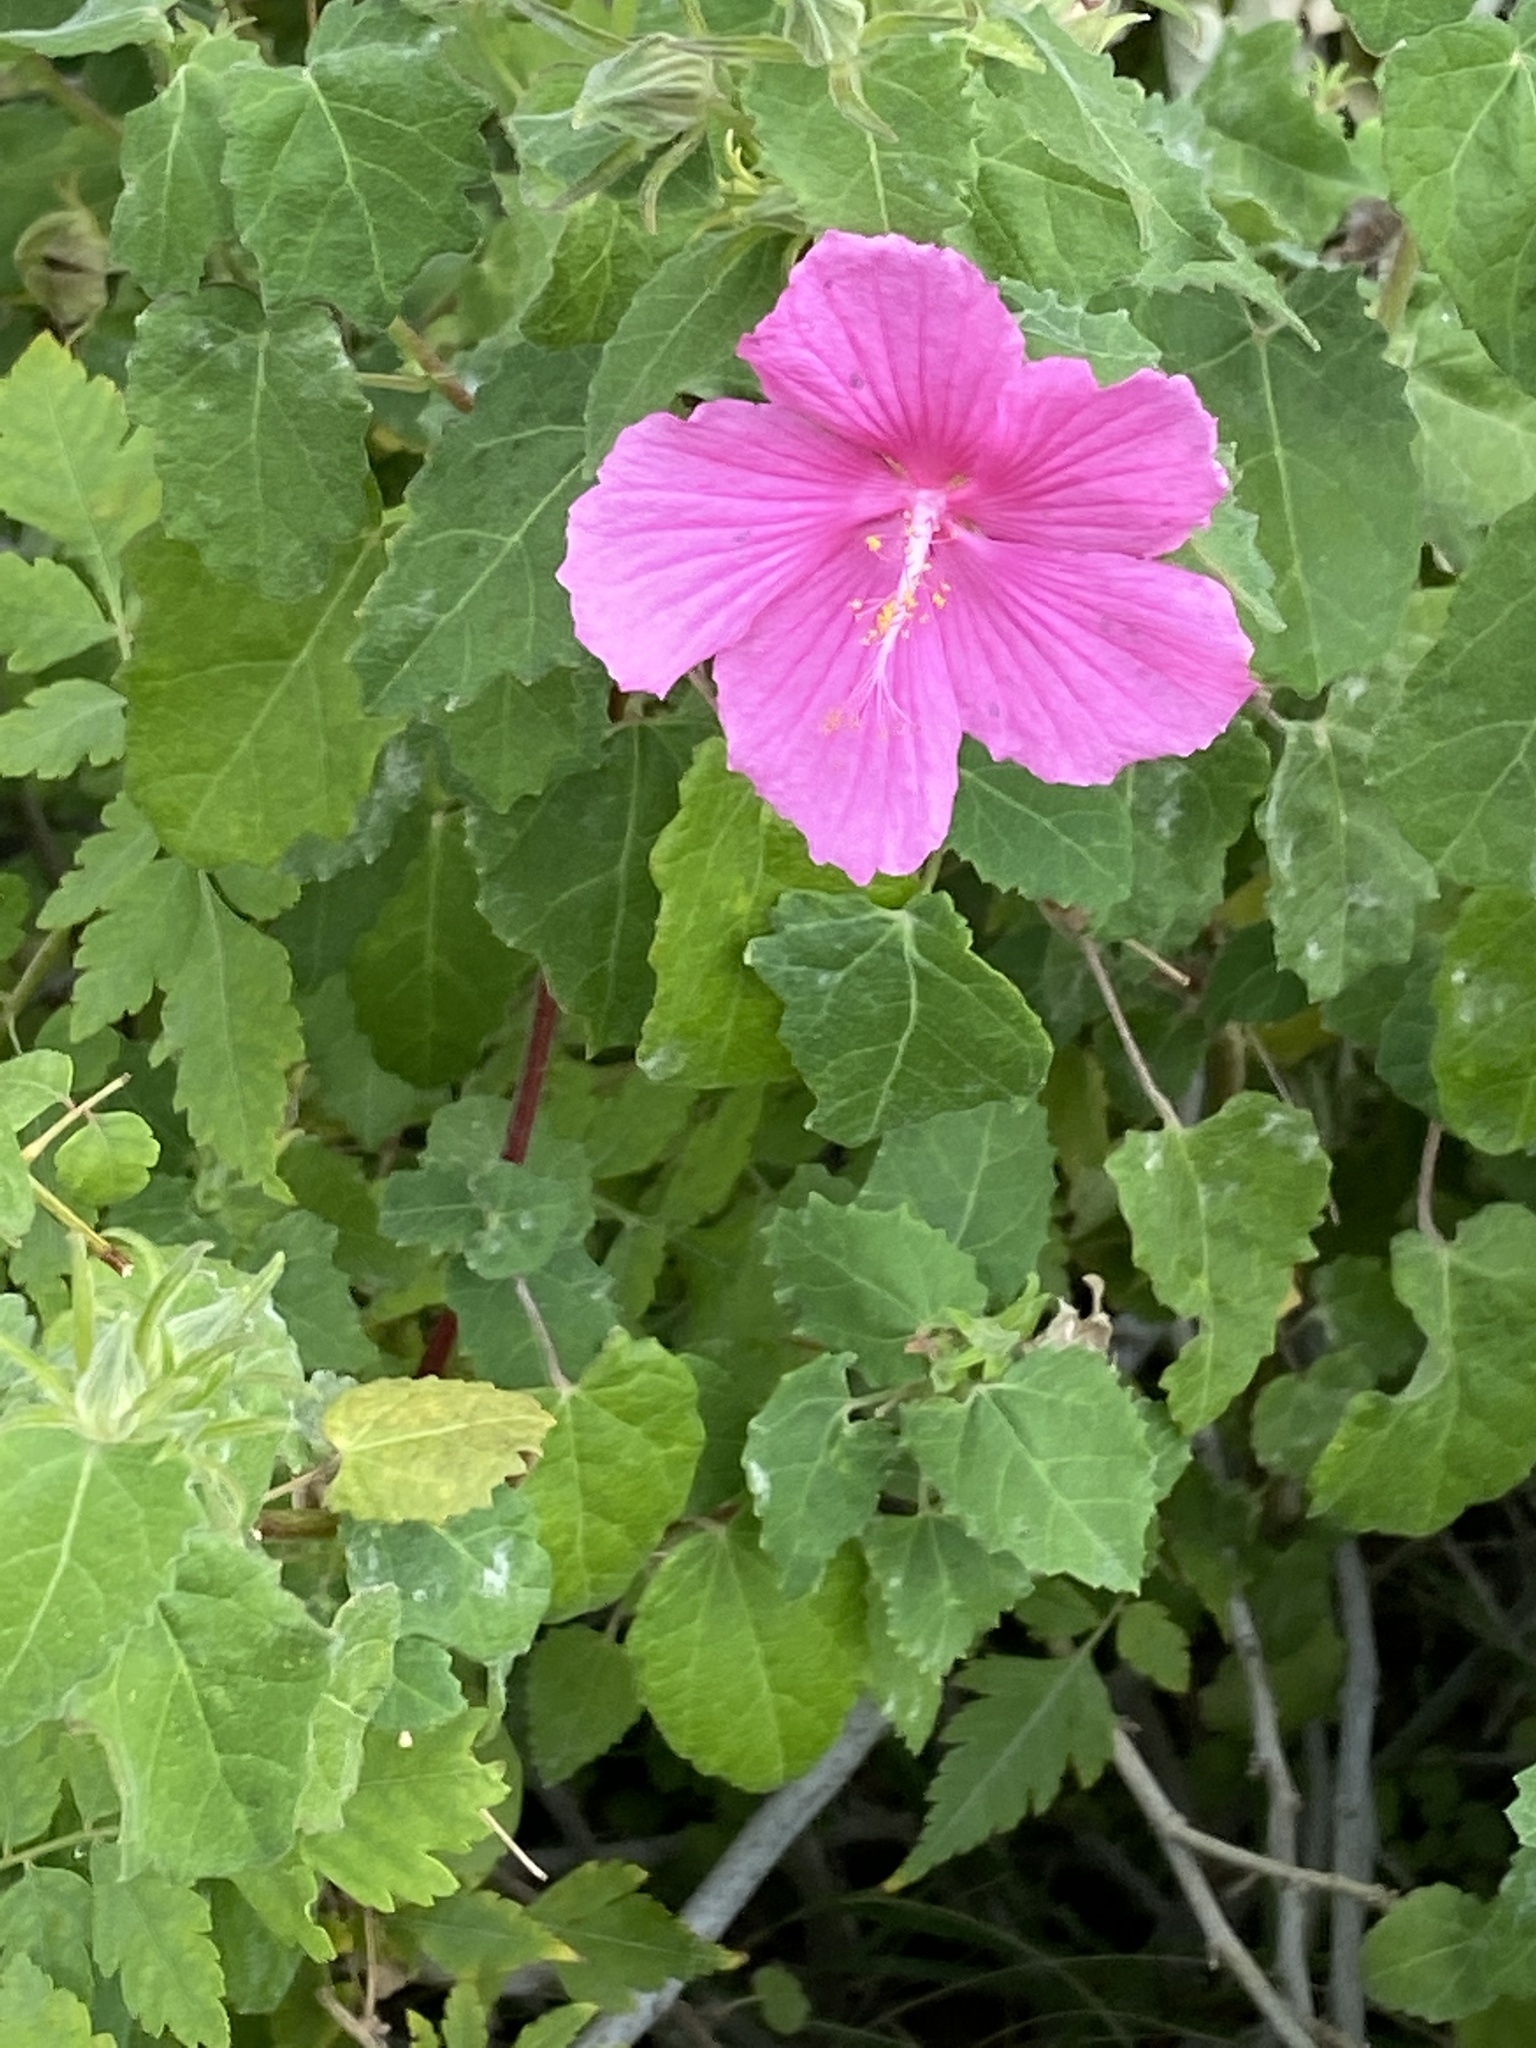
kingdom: Plantae
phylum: Tracheophyta
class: Magnoliopsida
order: Malvales
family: Malvaceae
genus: Pavonia
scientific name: Pavonia lasiopetala
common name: Texas swamp-mallow
